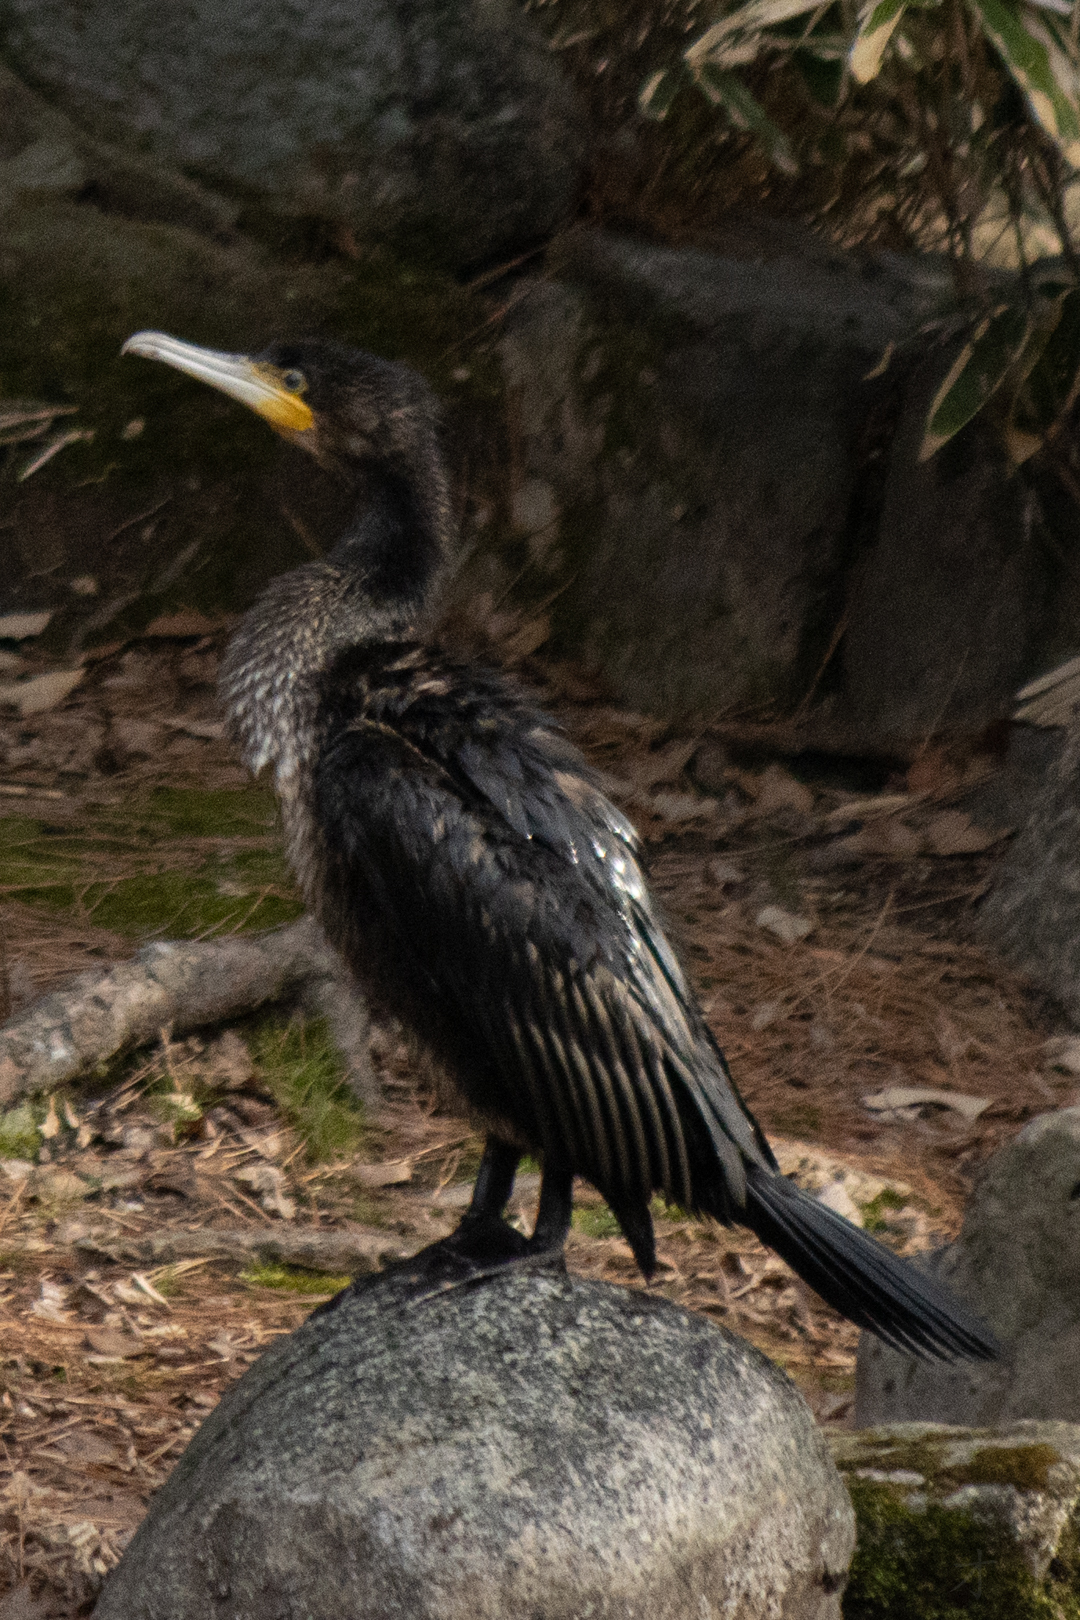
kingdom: Animalia
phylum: Chordata
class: Aves
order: Suliformes
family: Phalacrocoracidae
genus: Phalacrocorax
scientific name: Phalacrocorax carbo
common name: Great cormorant
